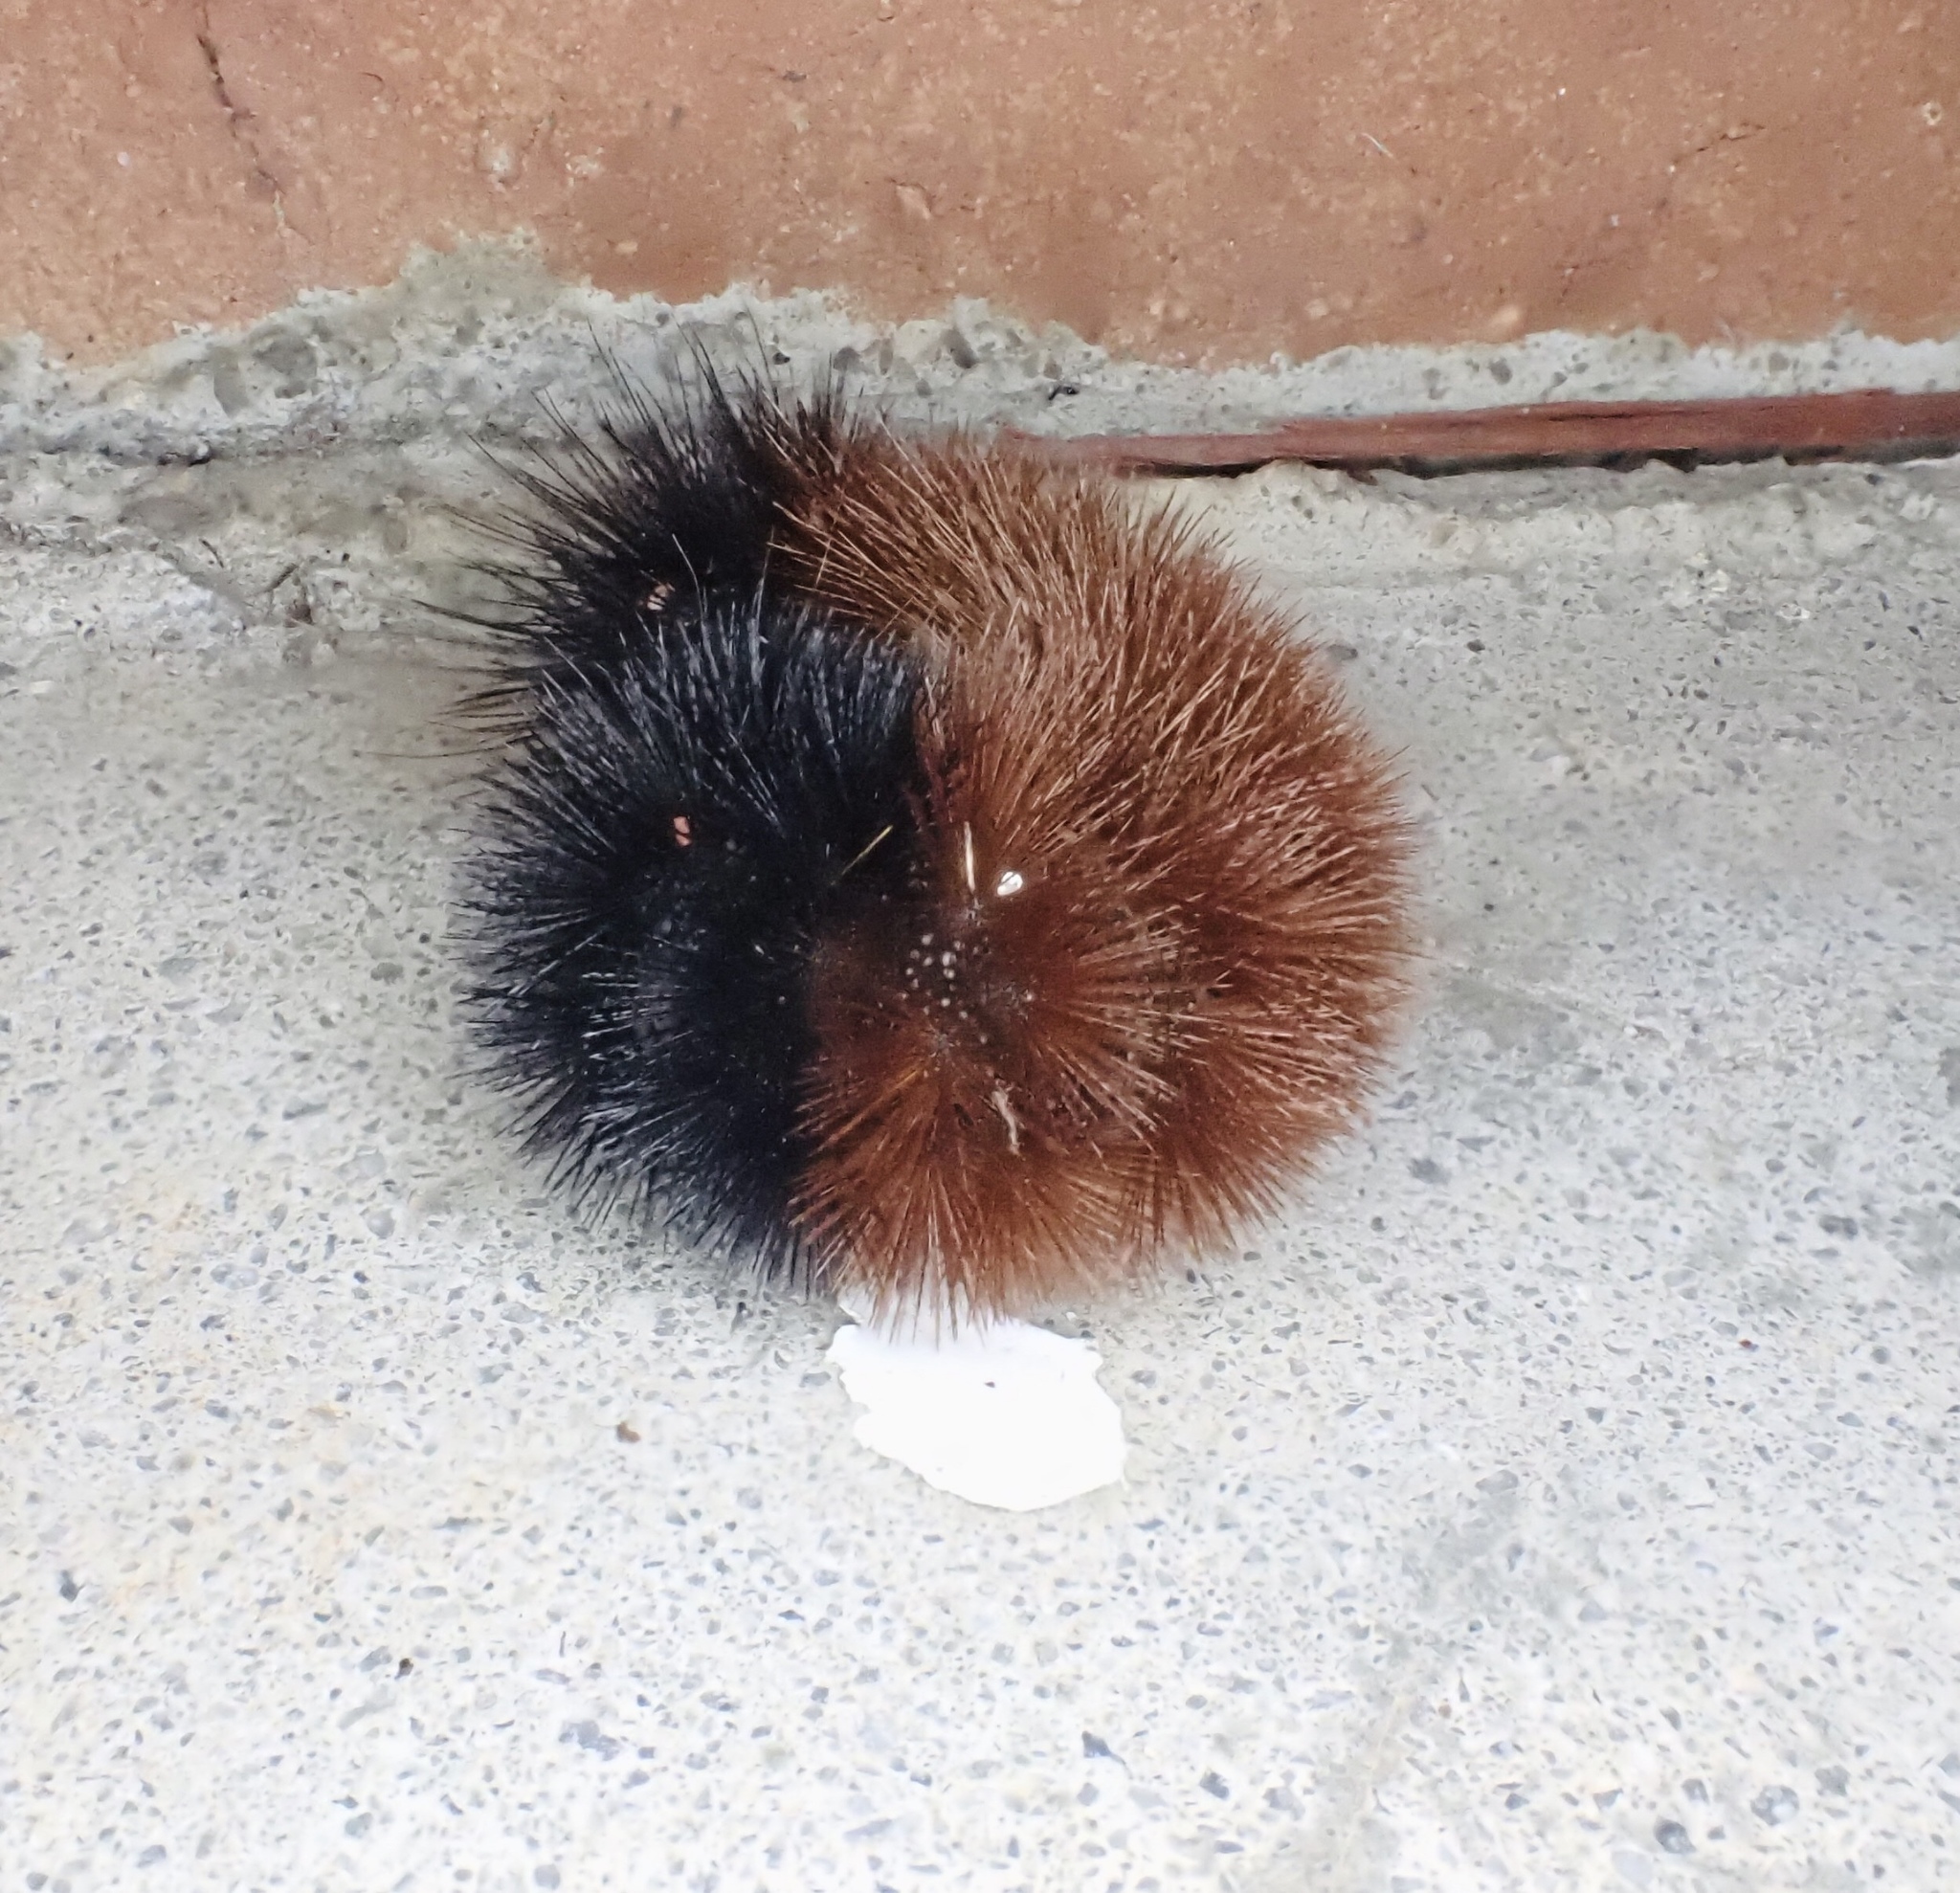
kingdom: Animalia
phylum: Arthropoda
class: Insecta
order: Lepidoptera
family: Erebidae
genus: Pyrrharctia
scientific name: Pyrrharctia isabella
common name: Isabella tiger moth
